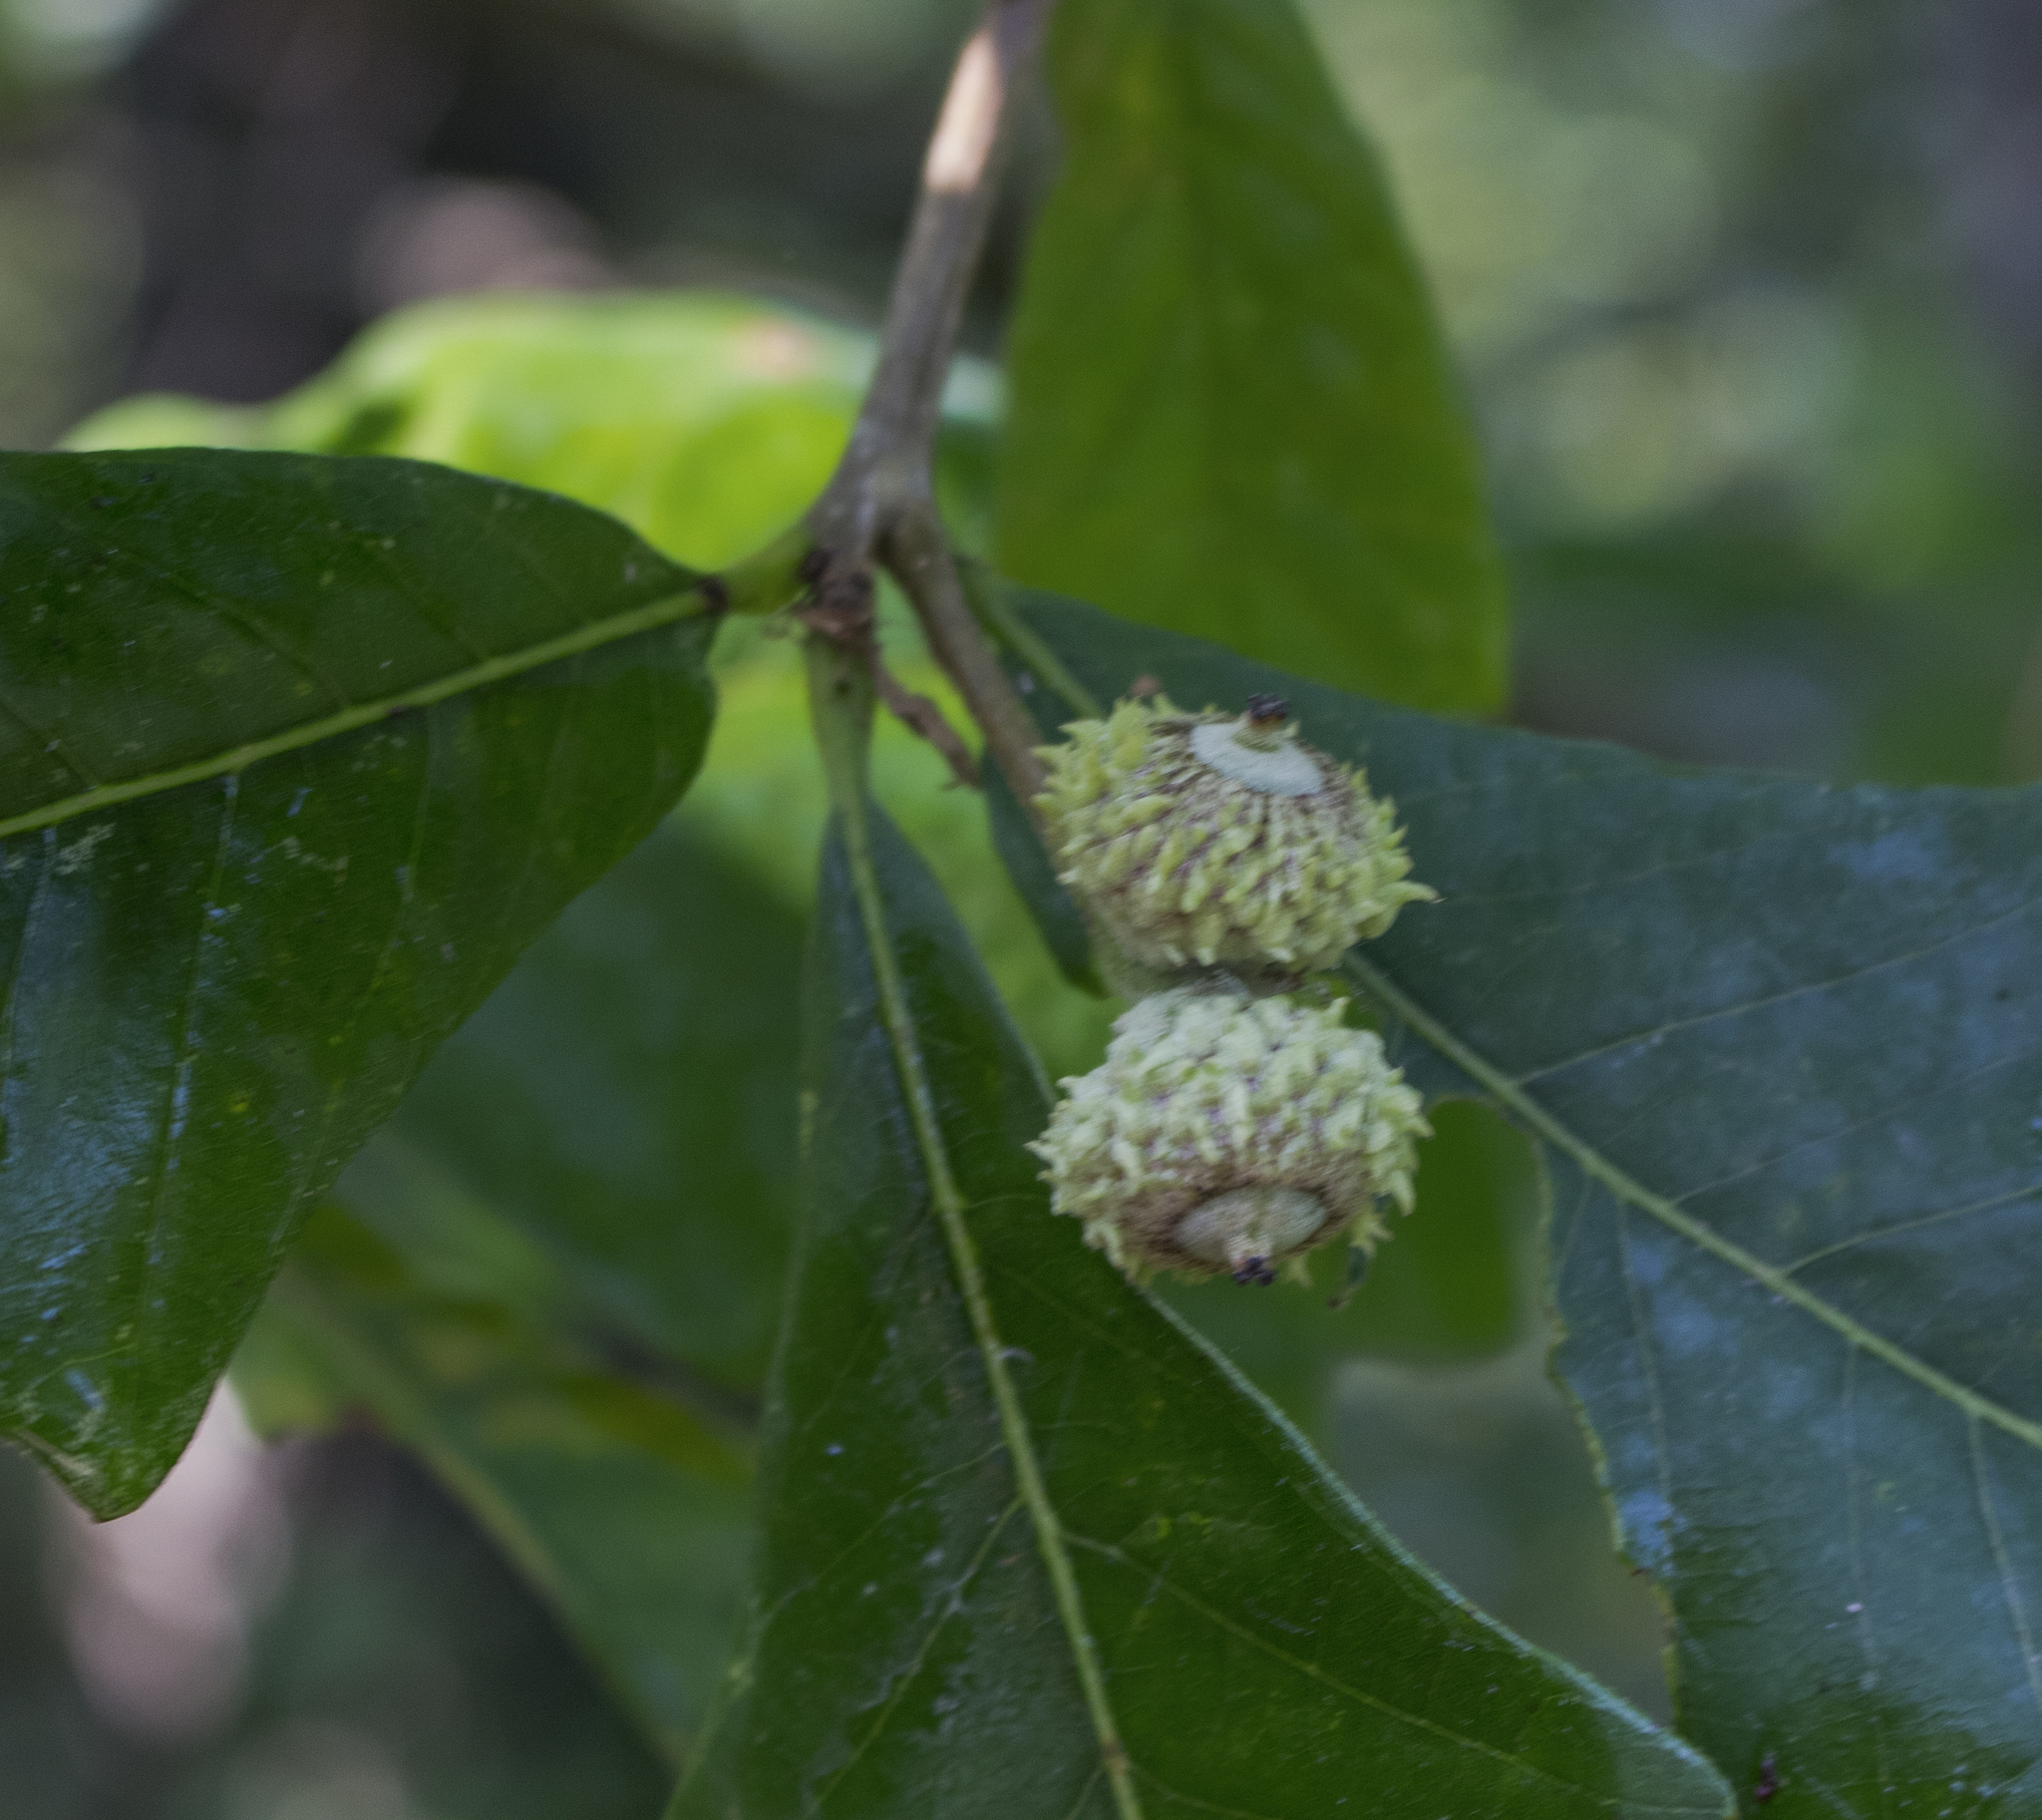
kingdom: Plantae
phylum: Tracheophyta
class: Magnoliopsida
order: Fagales
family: Fagaceae
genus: Quercus
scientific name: Quercus bicolor
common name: Swamp white oak
